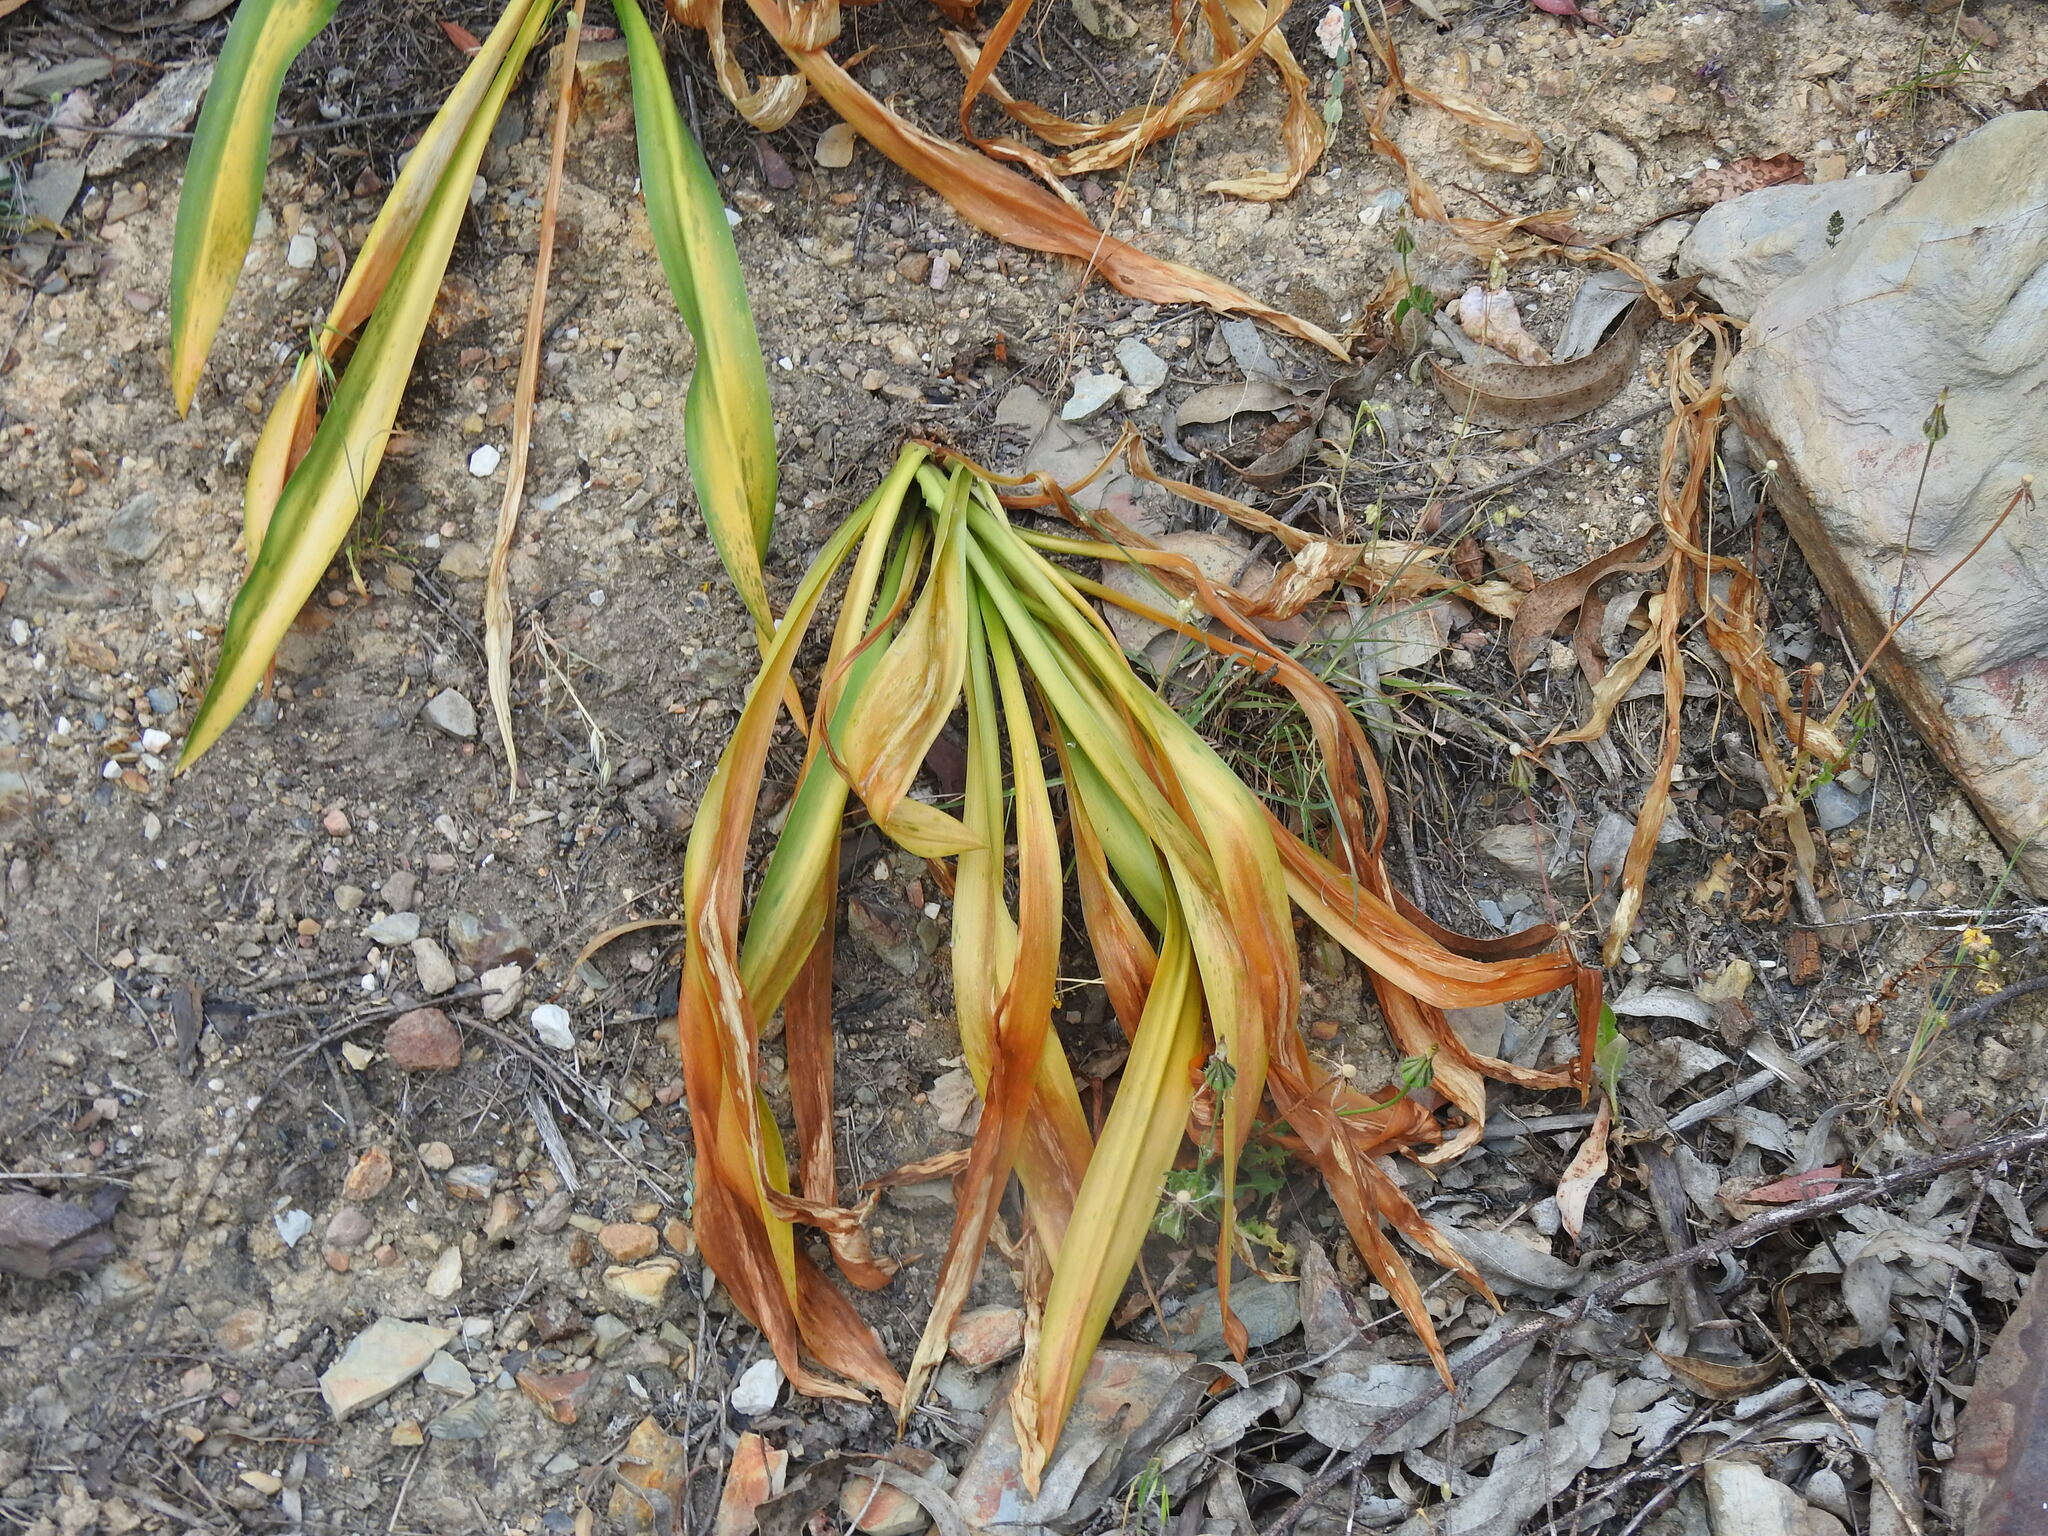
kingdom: Plantae
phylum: Tracheophyta
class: Liliopsida
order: Asparagales
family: Asparagaceae
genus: Drimia
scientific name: Drimia maritima
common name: Maritime squill
